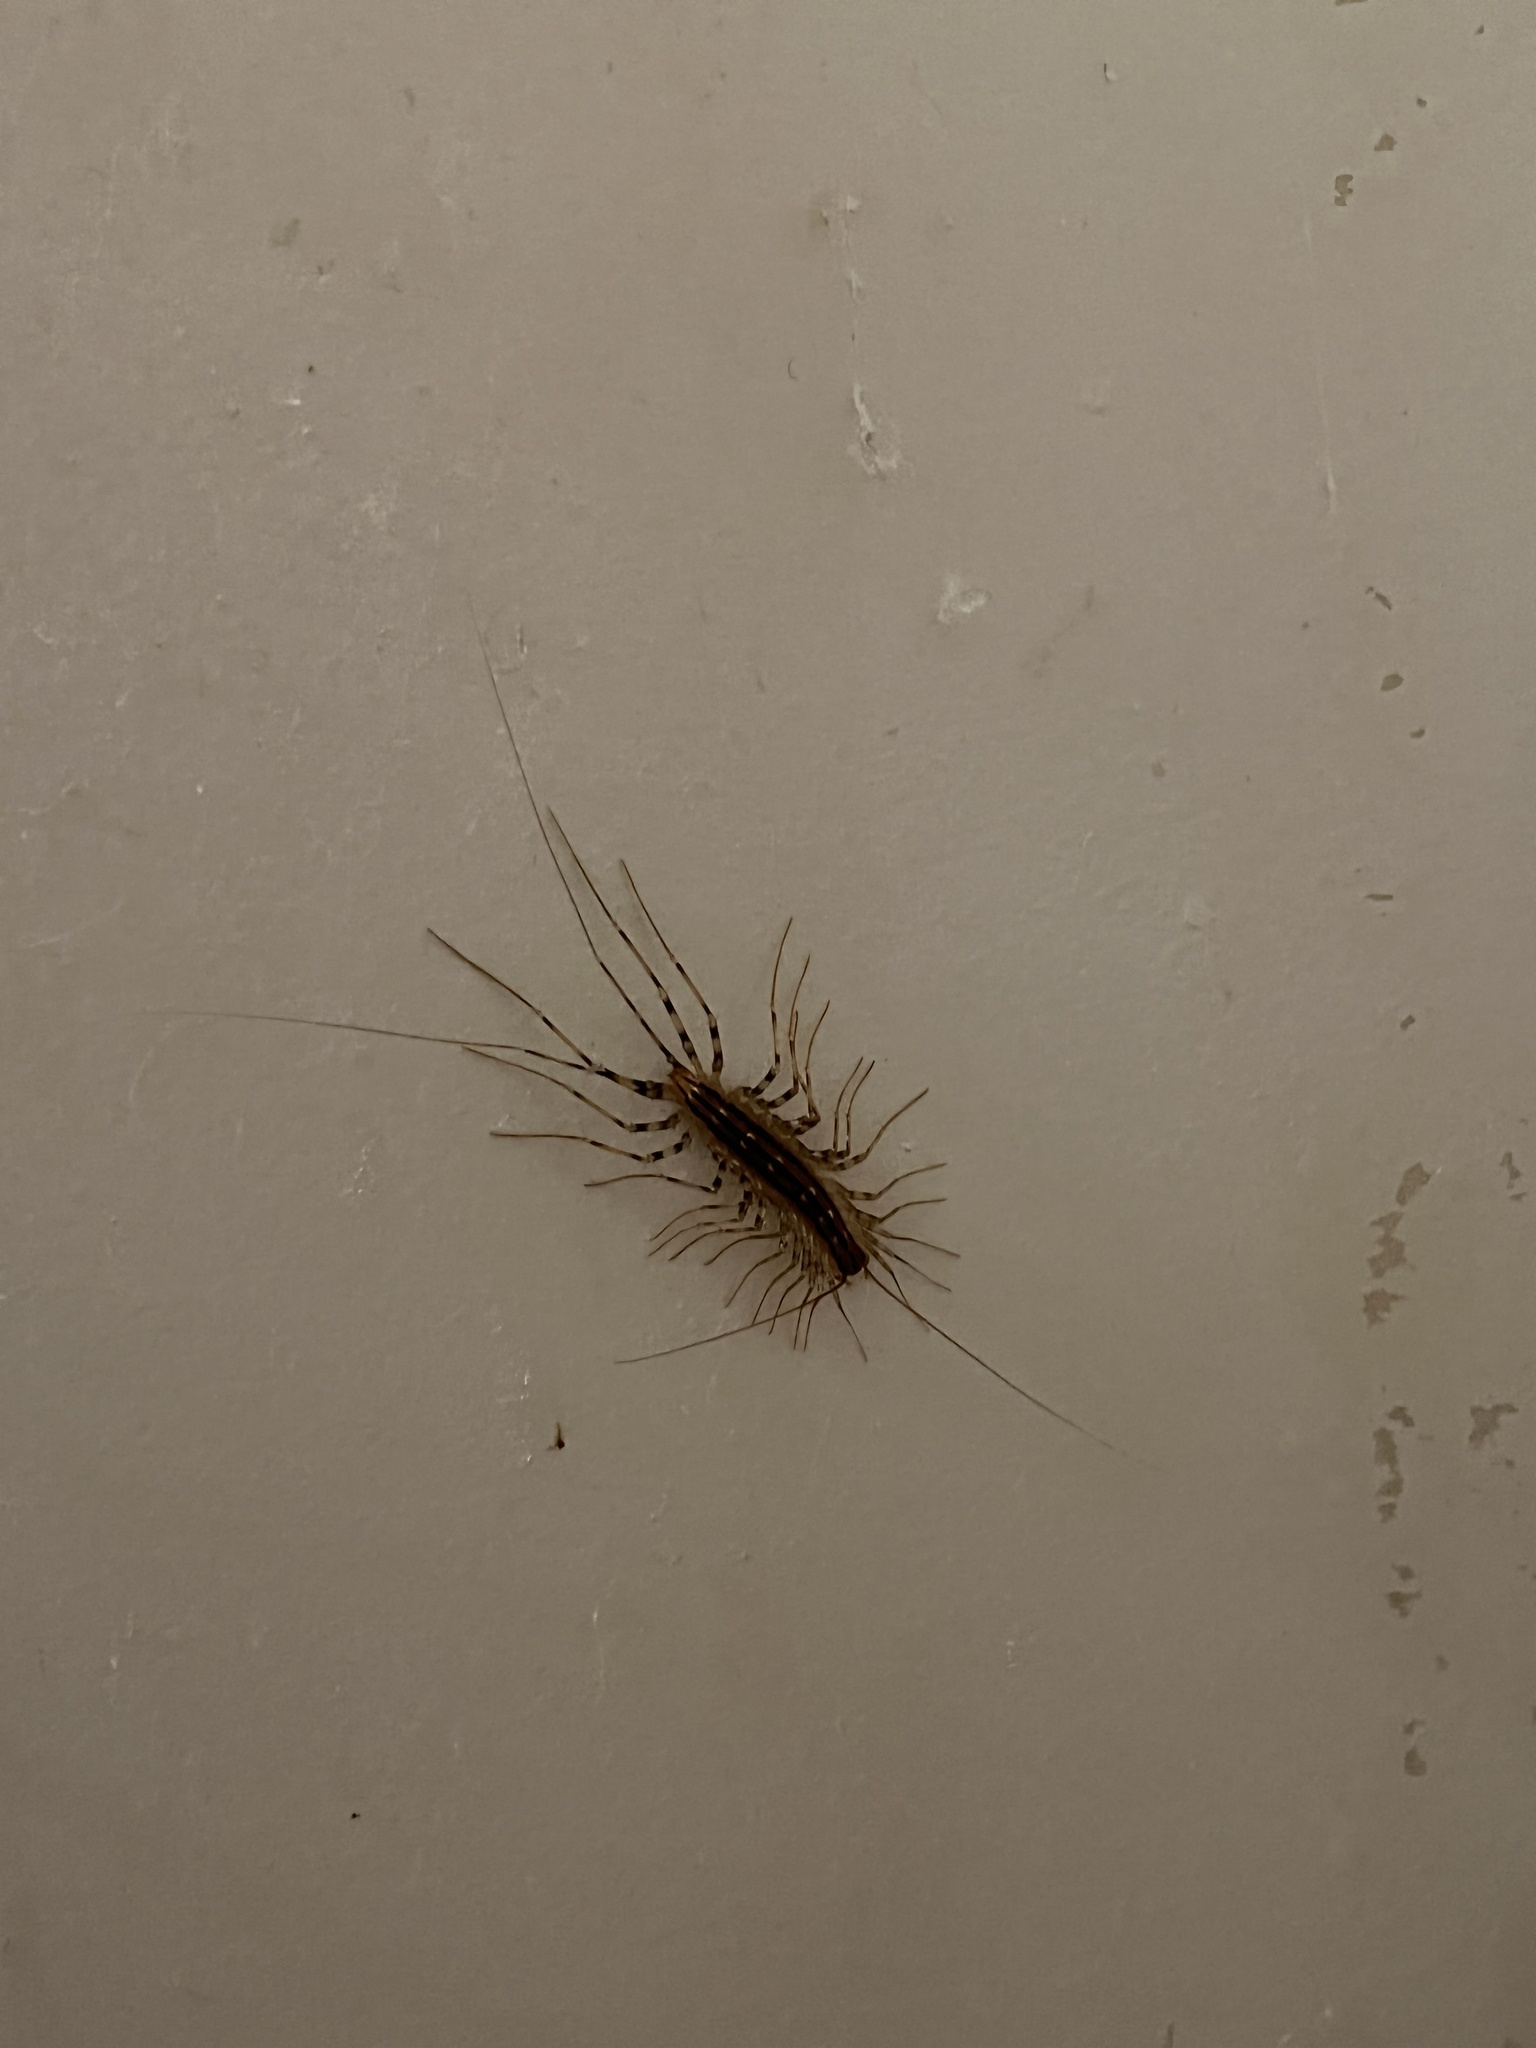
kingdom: Animalia
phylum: Arthropoda
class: Chilopoda
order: Scutigeromorpha
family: Scutigeridae
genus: Scutigera
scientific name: Scutigera coleoptrata
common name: House centipede
